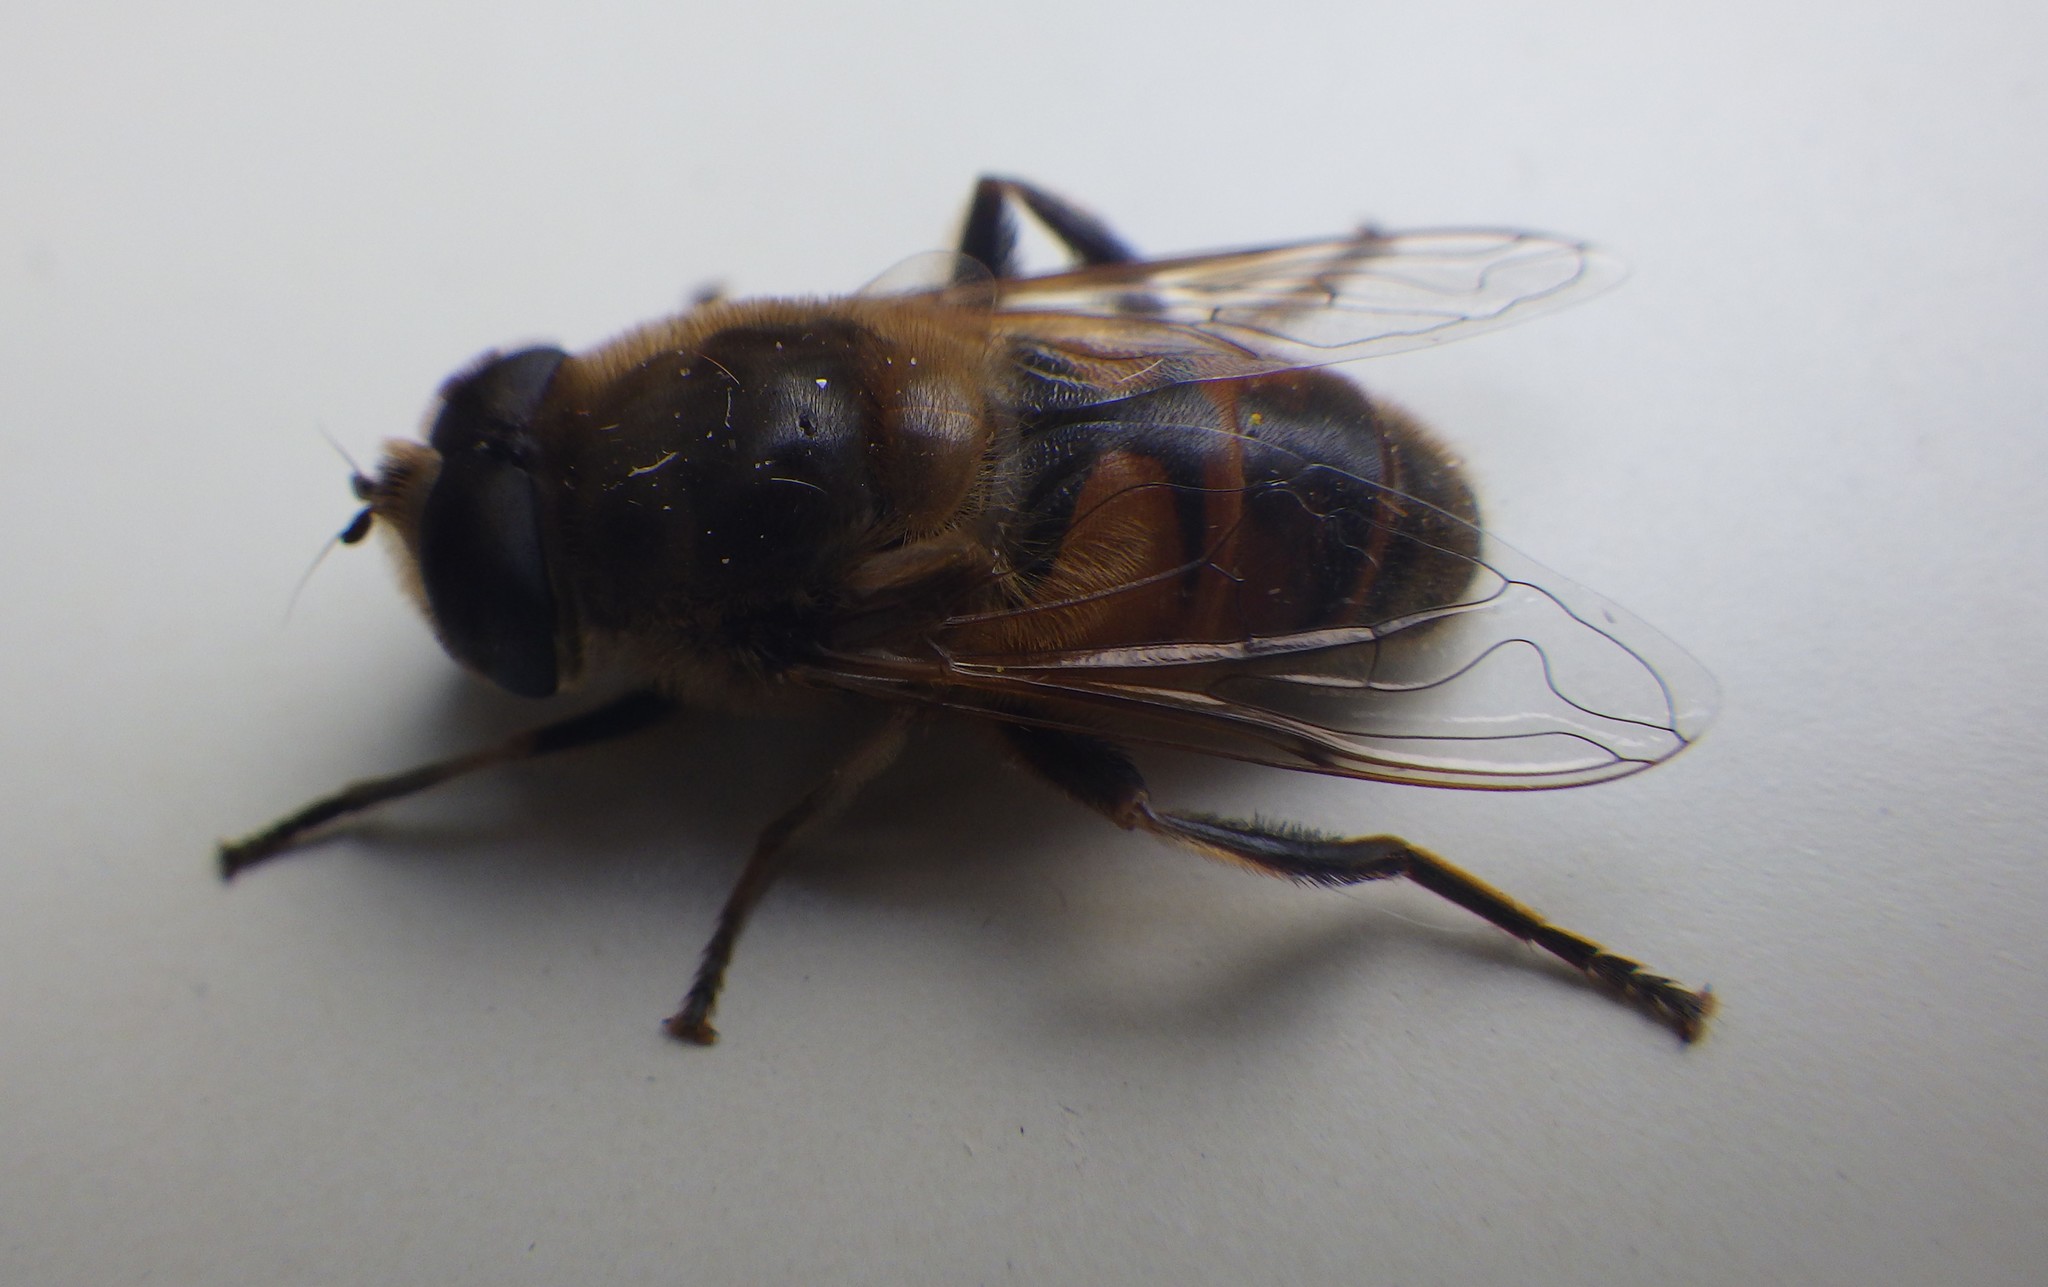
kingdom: Animalia
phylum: Arthropoda
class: Insecta
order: Diptera
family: Syrphidae
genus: Eristalis
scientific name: Eristalis tenax
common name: Drone fly
